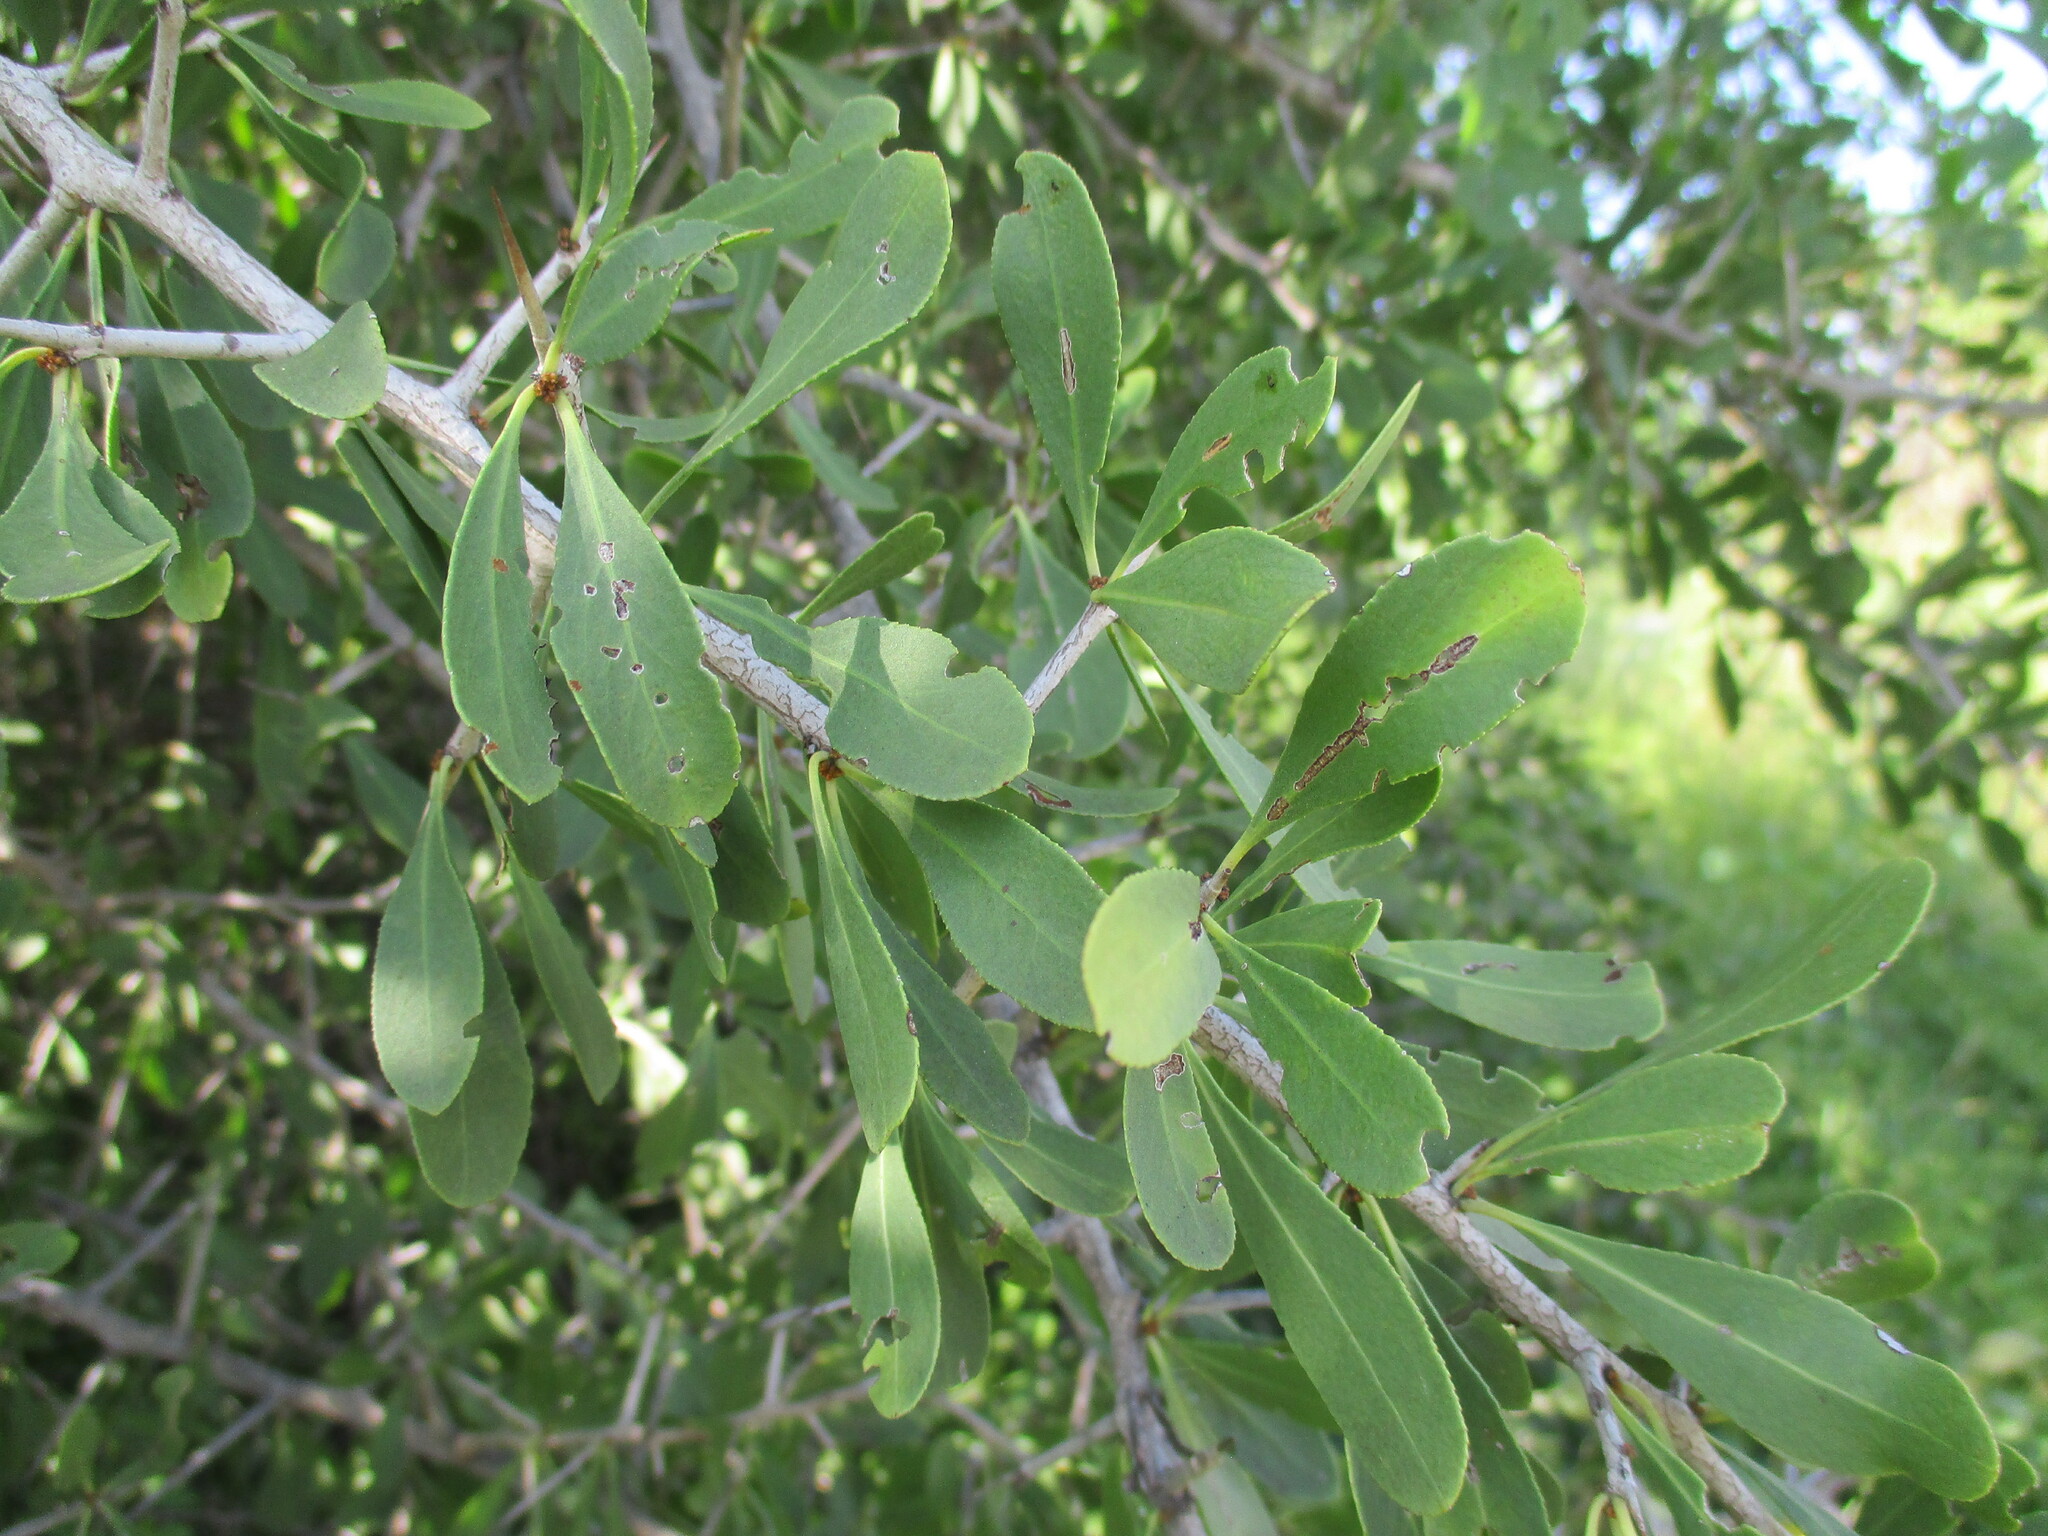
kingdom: Plantae
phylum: Tracheophyta
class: Magnoliopsida
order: Celastrales
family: Celastraceae
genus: Gymnosporia
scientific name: Gymnosporia senegalensis
